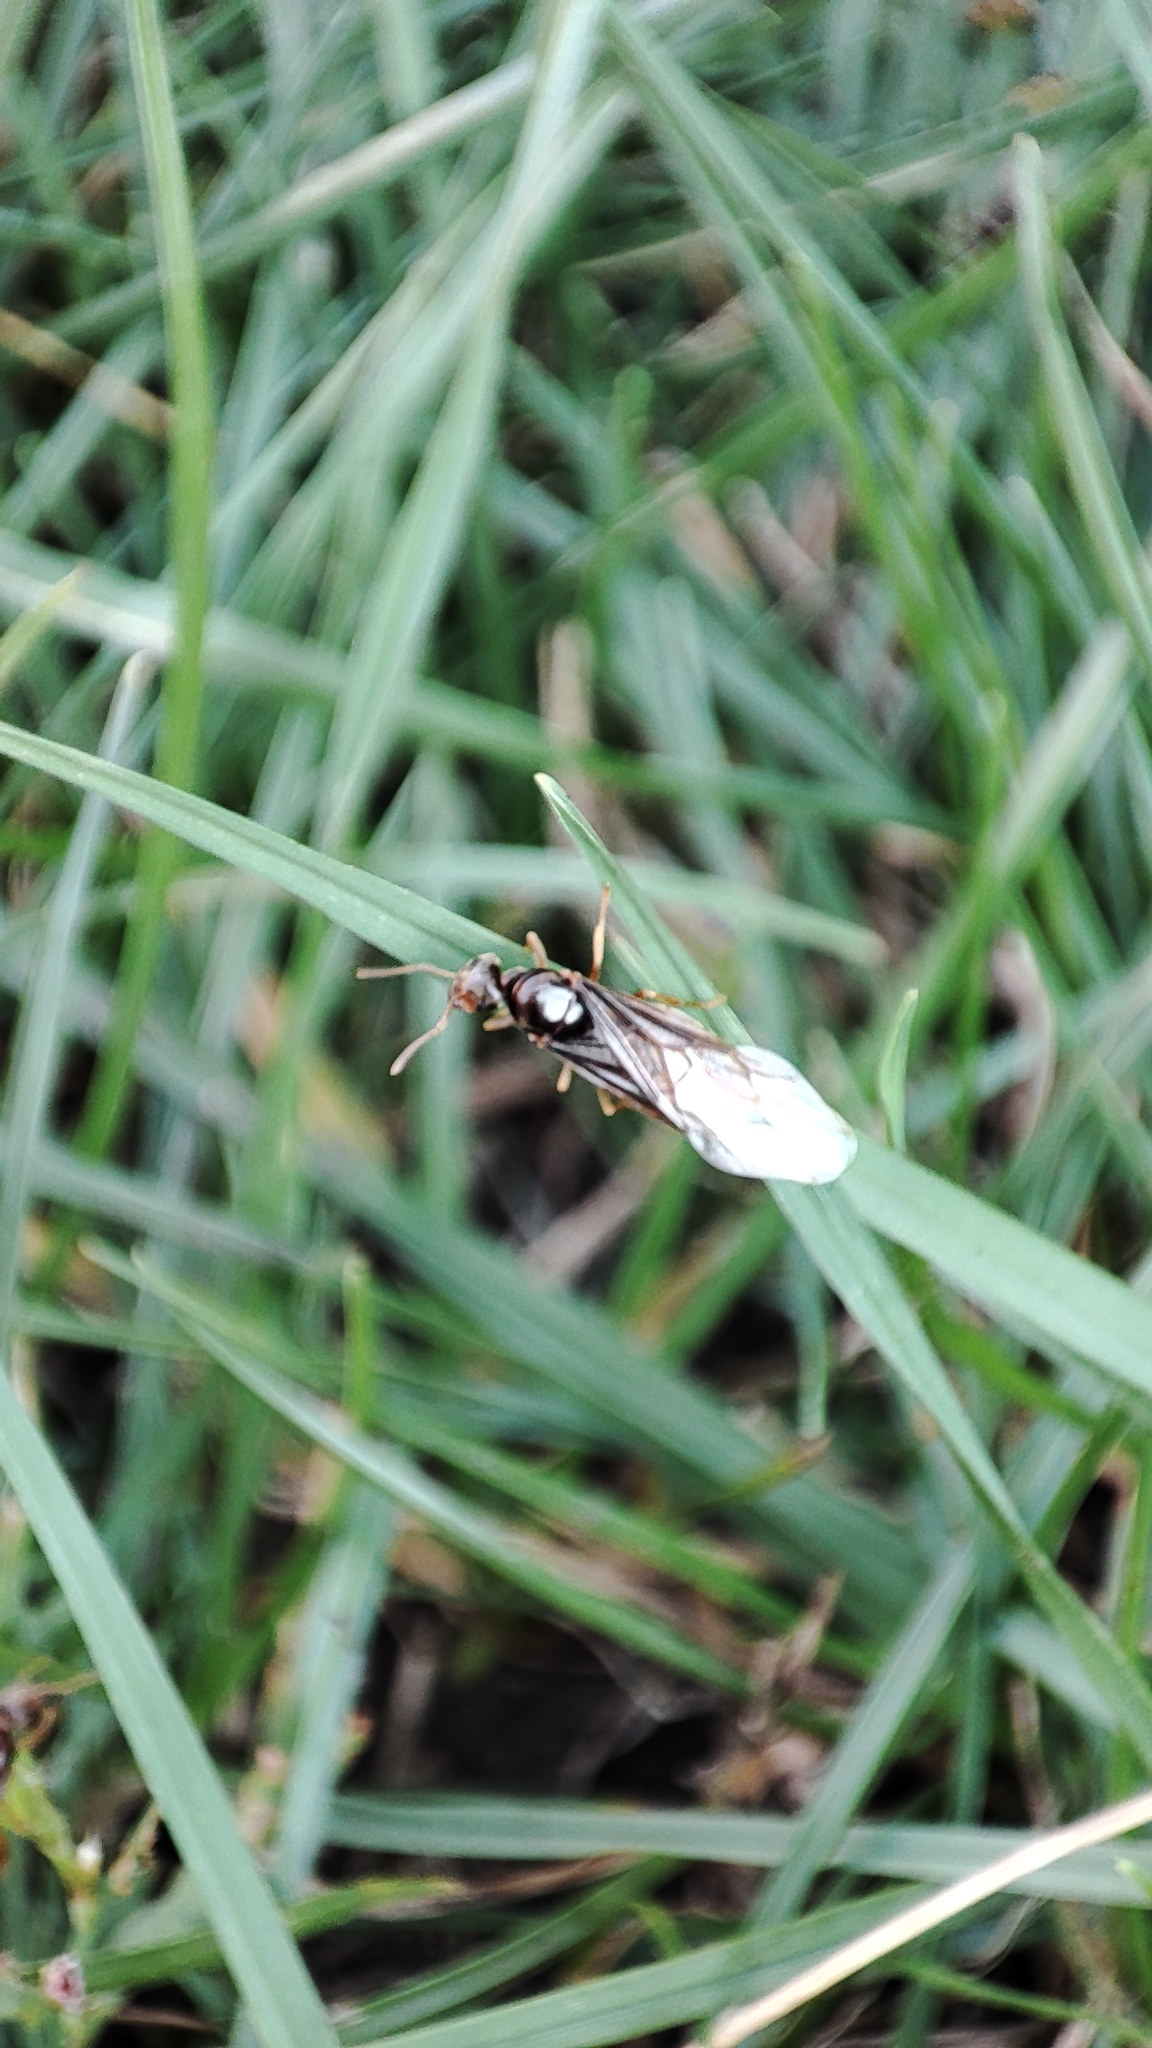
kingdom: Animalia
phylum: Arthropoda
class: Insecta
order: Hymenoptera
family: Formicidae
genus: Lasius
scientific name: Lasius flavus
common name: Blond field ant
